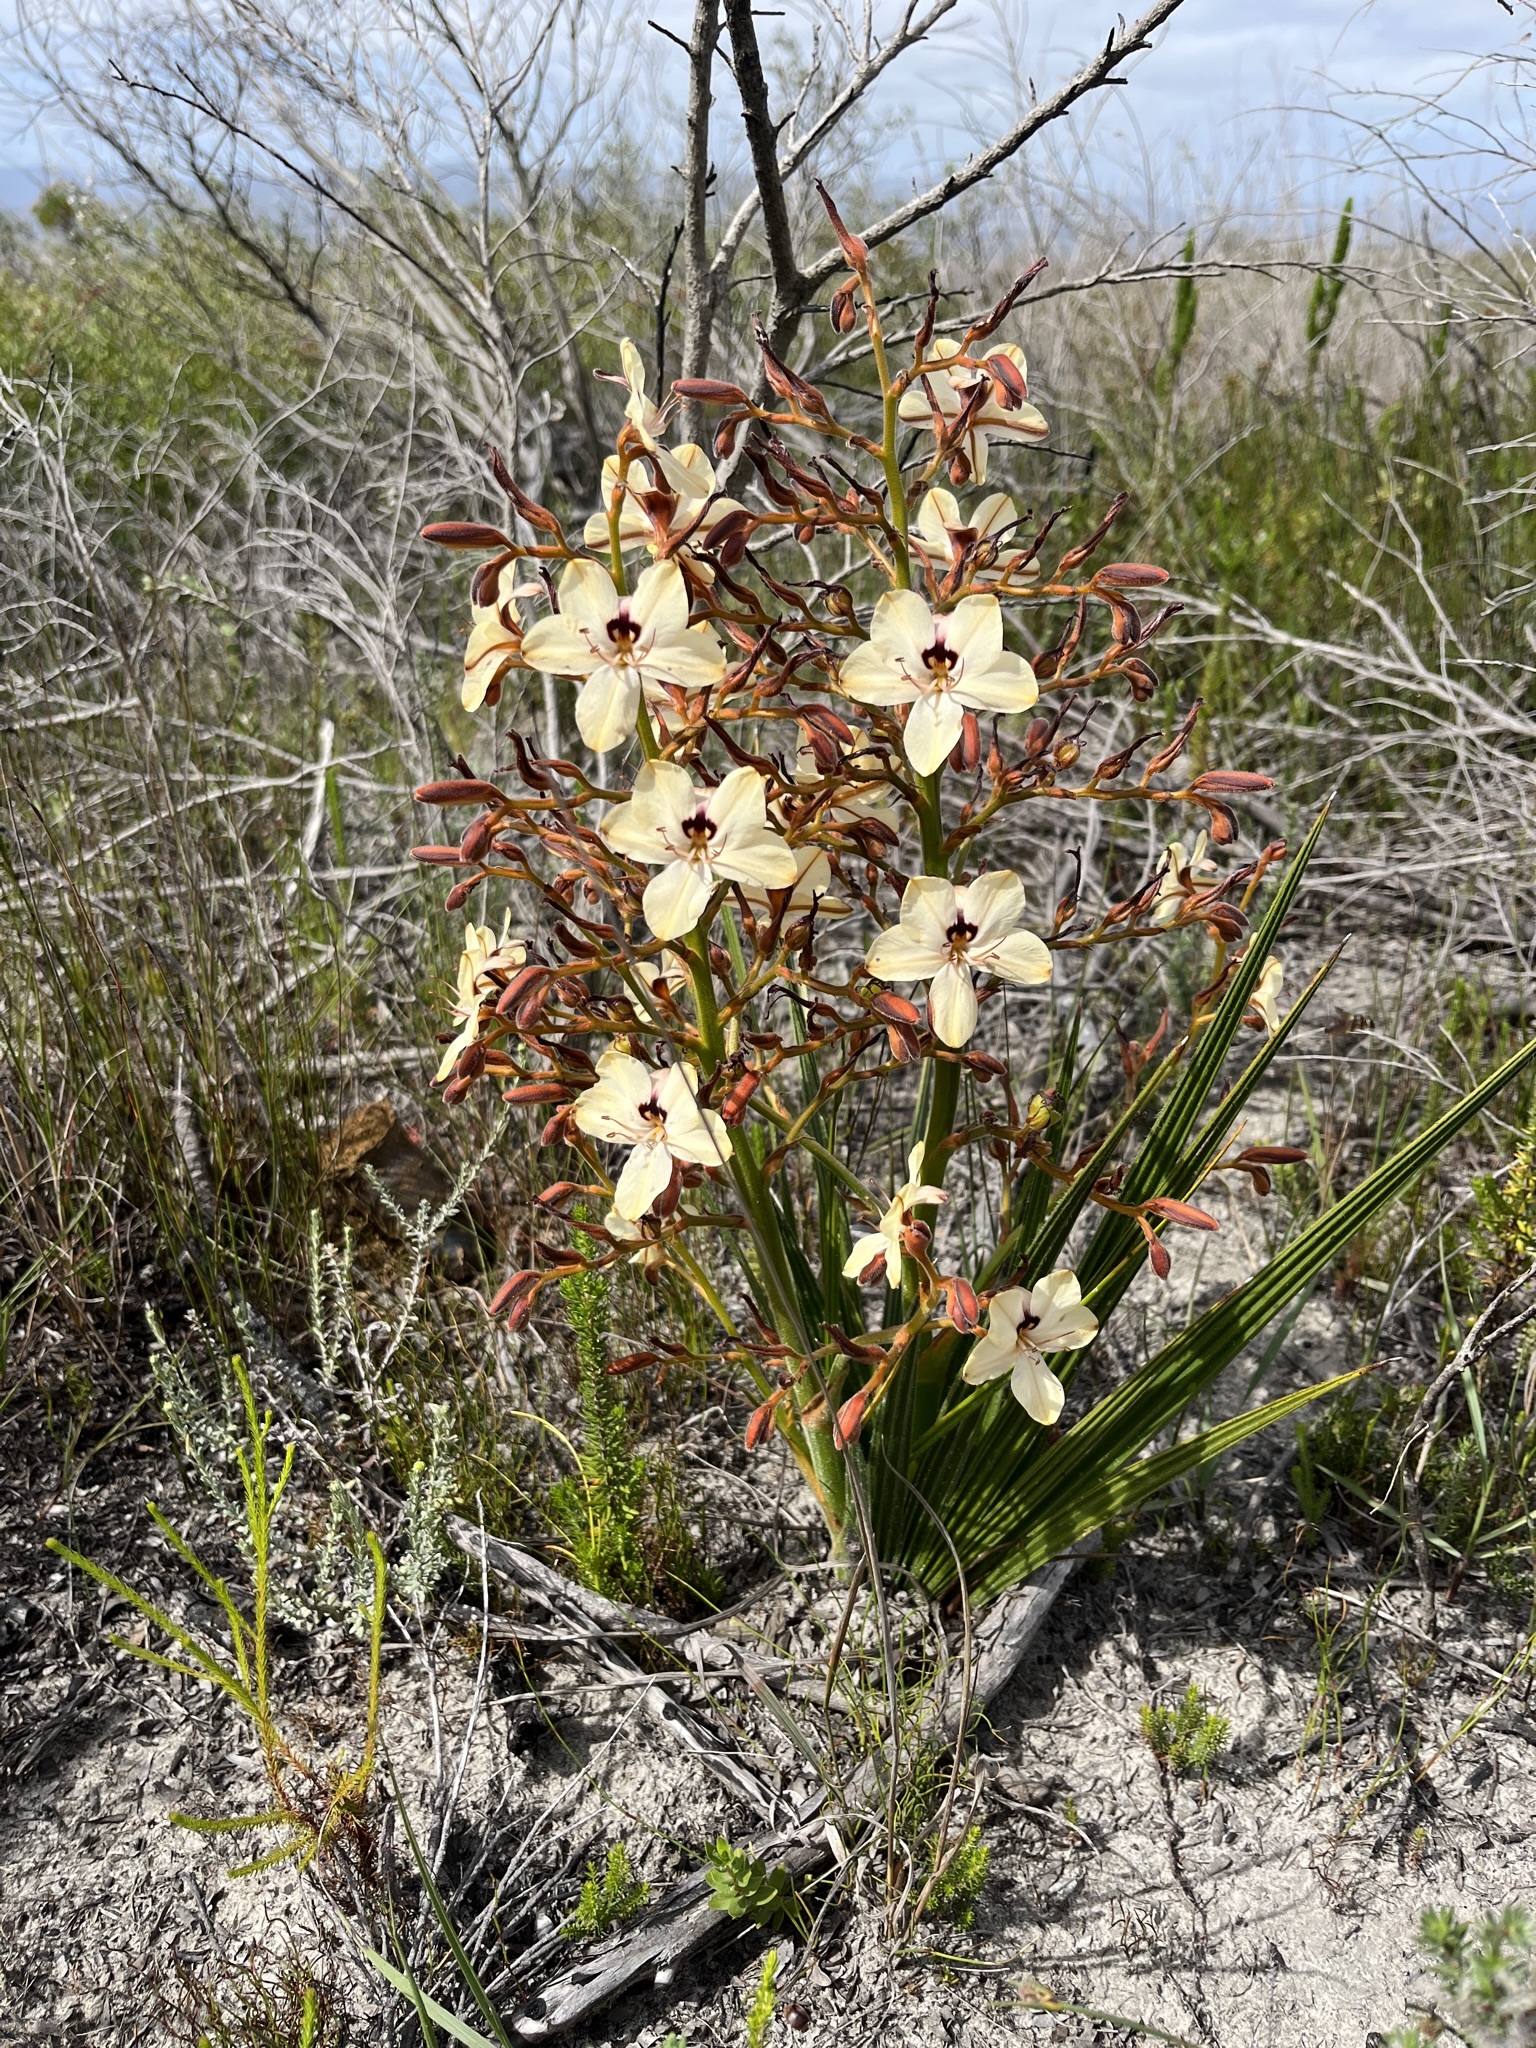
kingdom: Plantae
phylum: Tracheophyta
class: Liliopsida
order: Commelinales
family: Haemodoraceae
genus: Wachendorfia
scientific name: Wachendorfia paniculata
